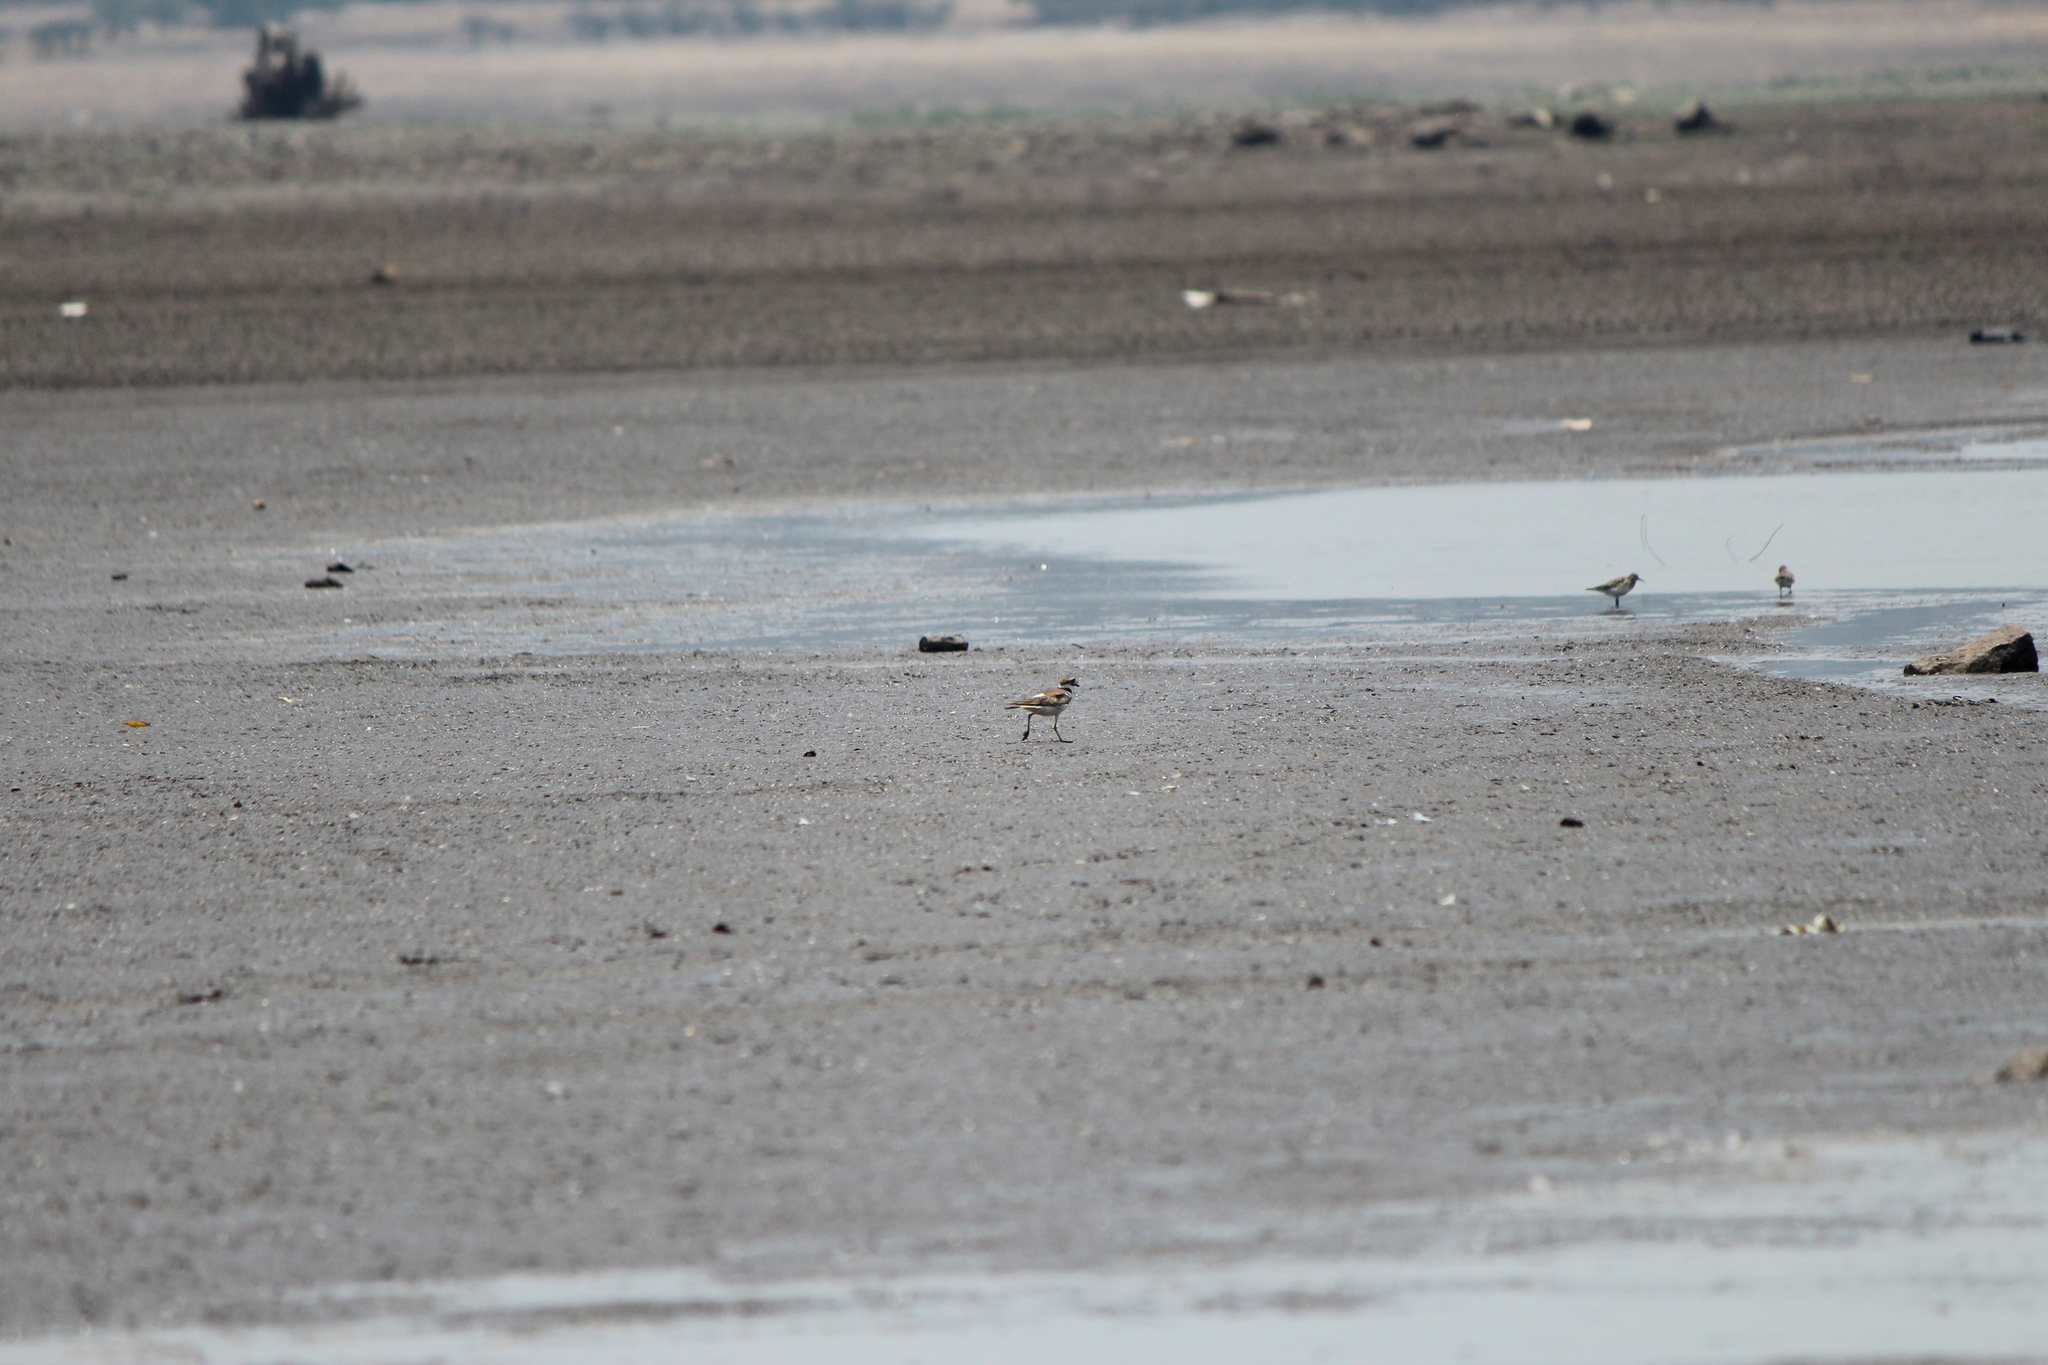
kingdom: Animalia
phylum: Chordata
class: Aves
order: Charadriiformes
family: Charadriidae
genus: Charadrius
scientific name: Charadrius vociferus
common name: Killdeer
